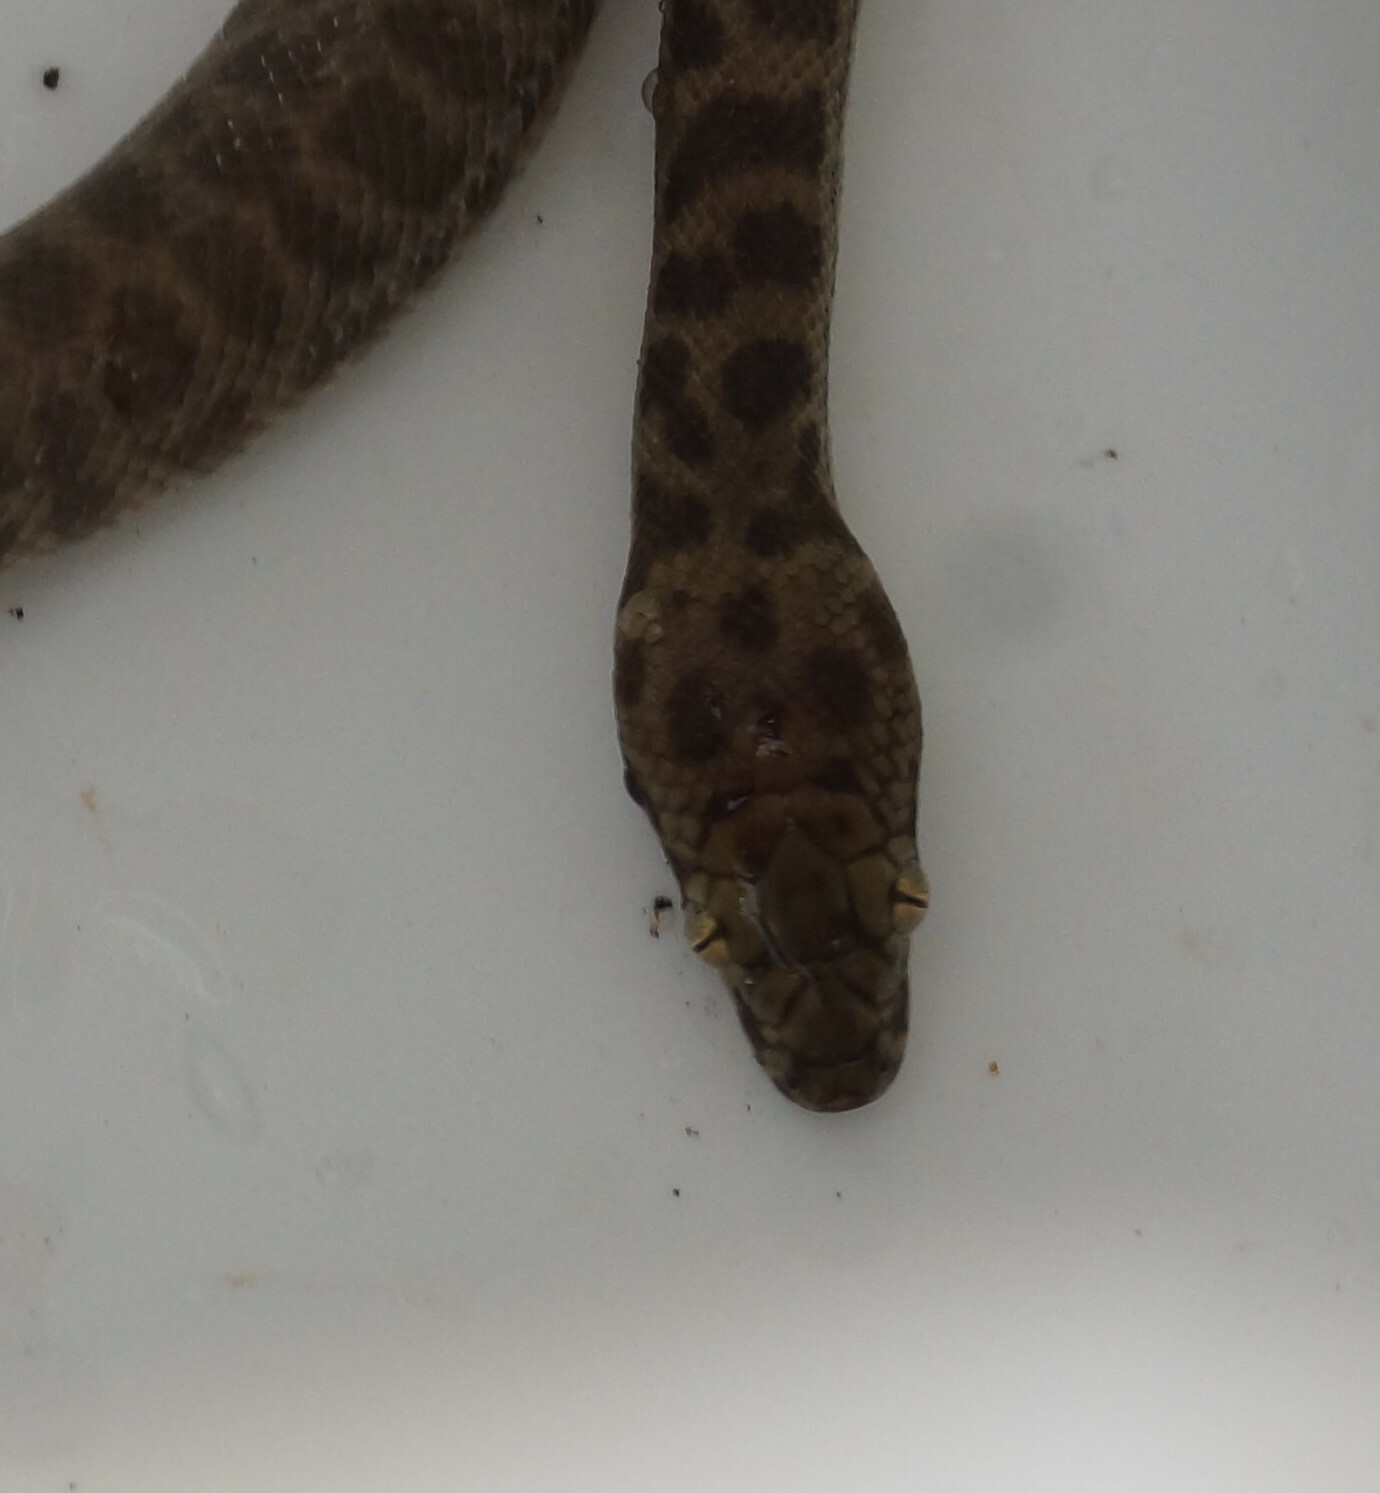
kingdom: Animalia
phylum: Chordata
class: Squamata
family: Pythonidae
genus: Antaresia
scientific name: Antaresia childreni
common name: Children's python
